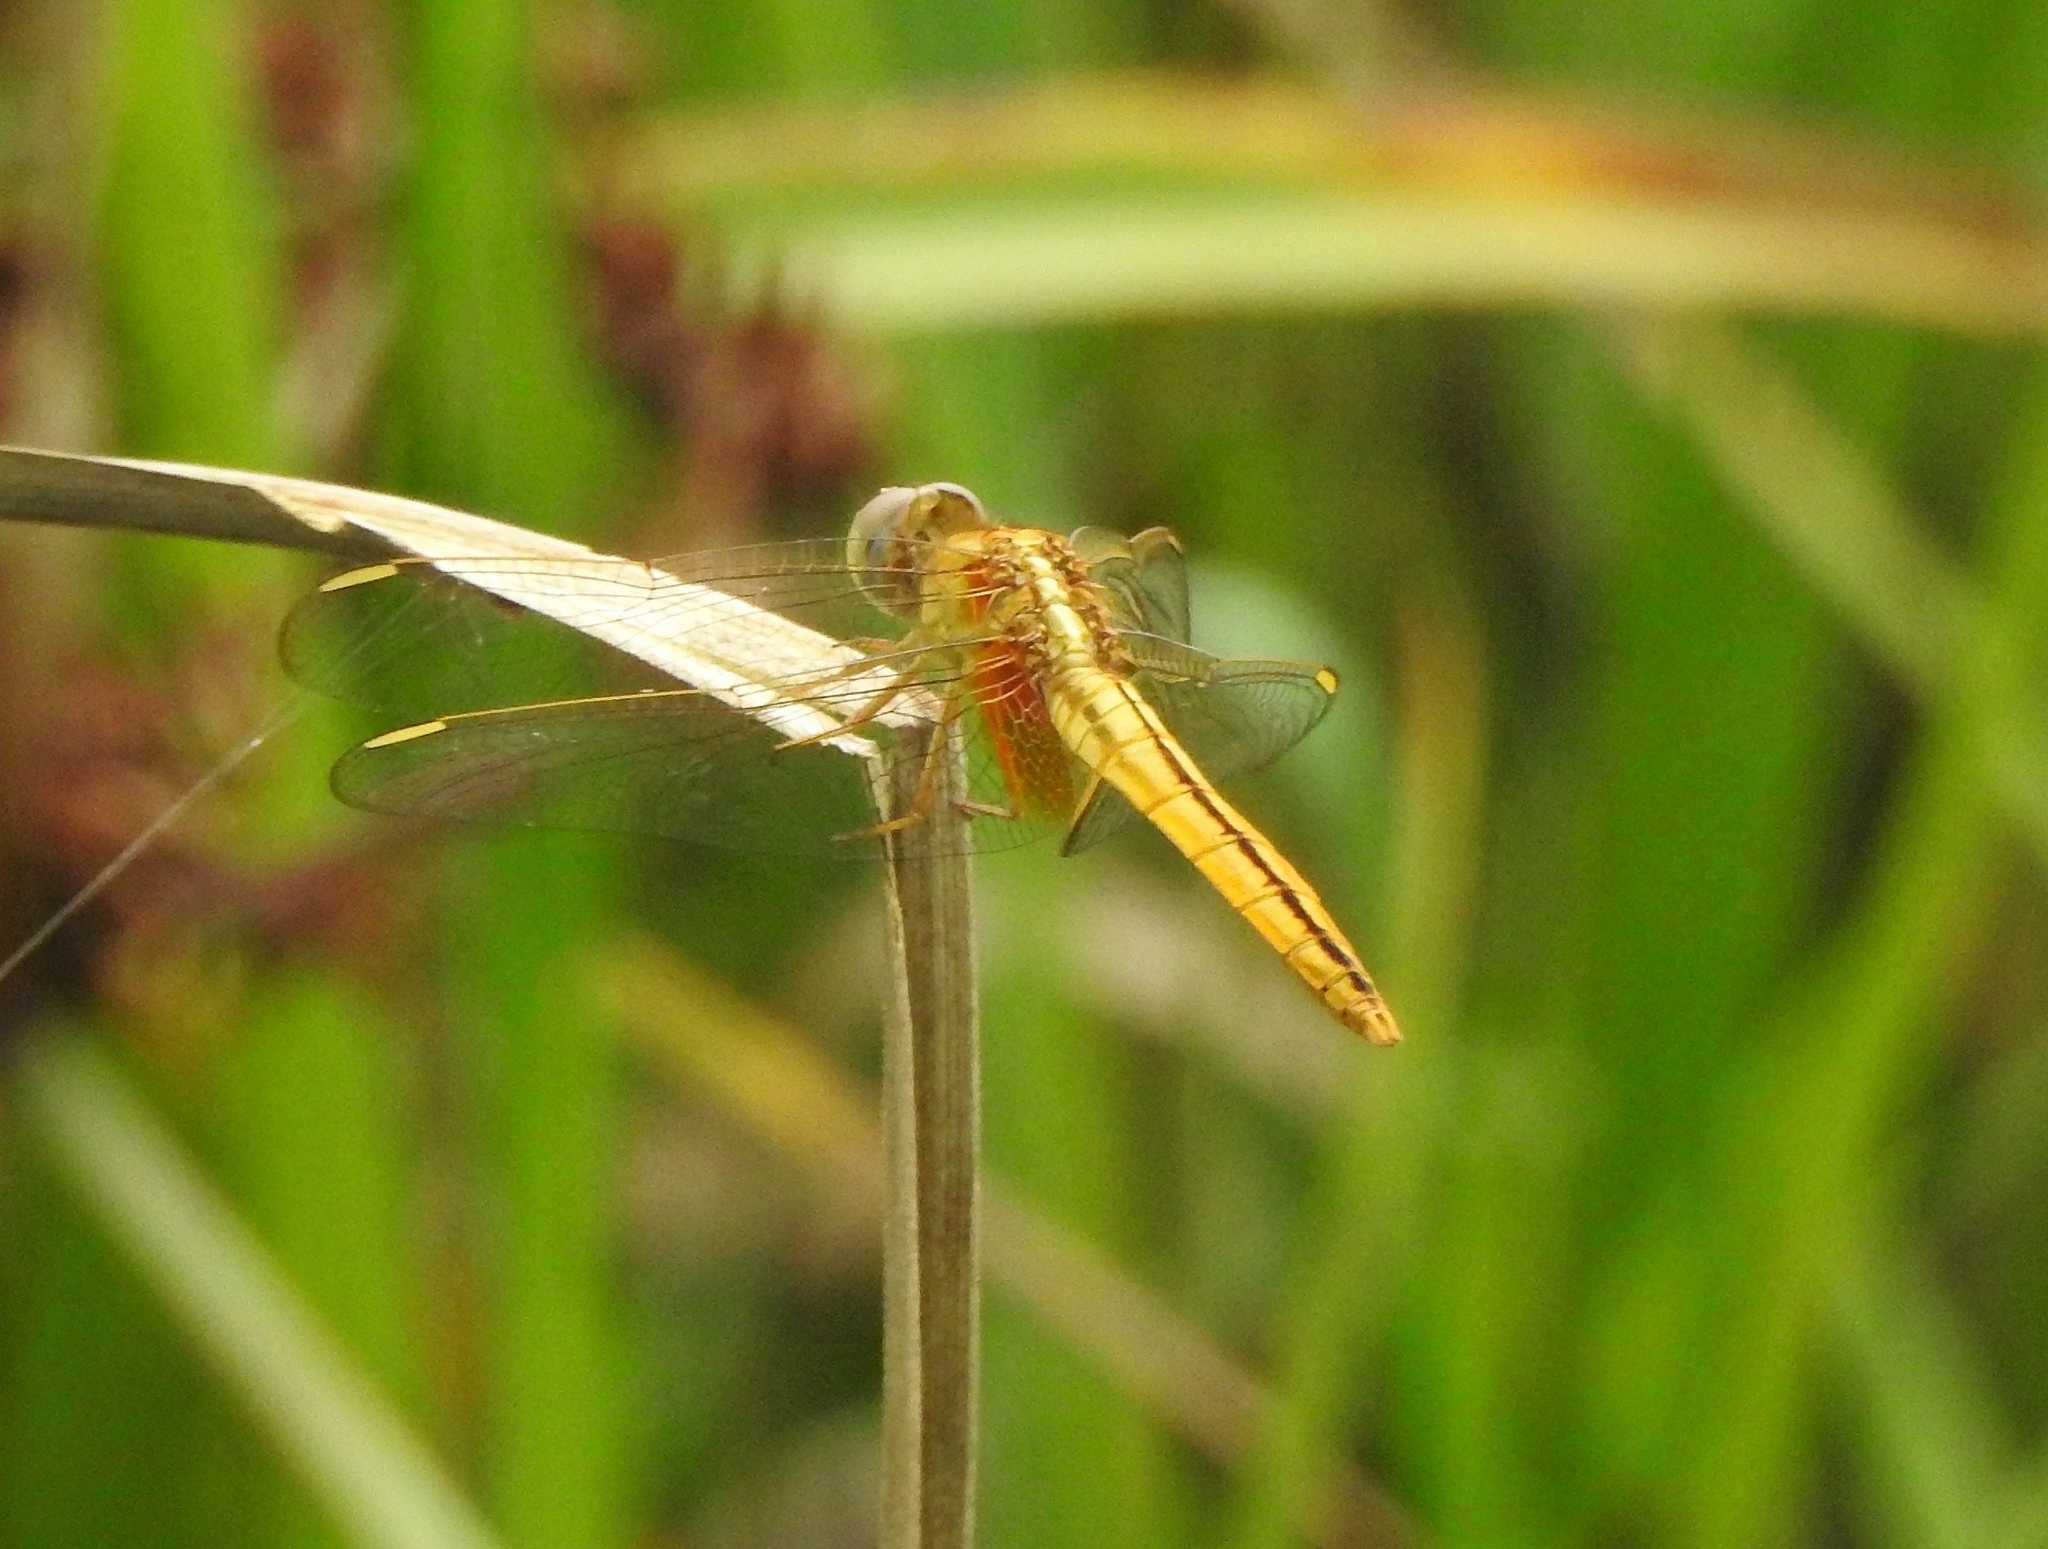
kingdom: Animalia
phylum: Arthropoda
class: Insecta
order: Odonata
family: Libellulidae
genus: Crocothemis
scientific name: Crocothemis servilia
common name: Scarlet skimmer
